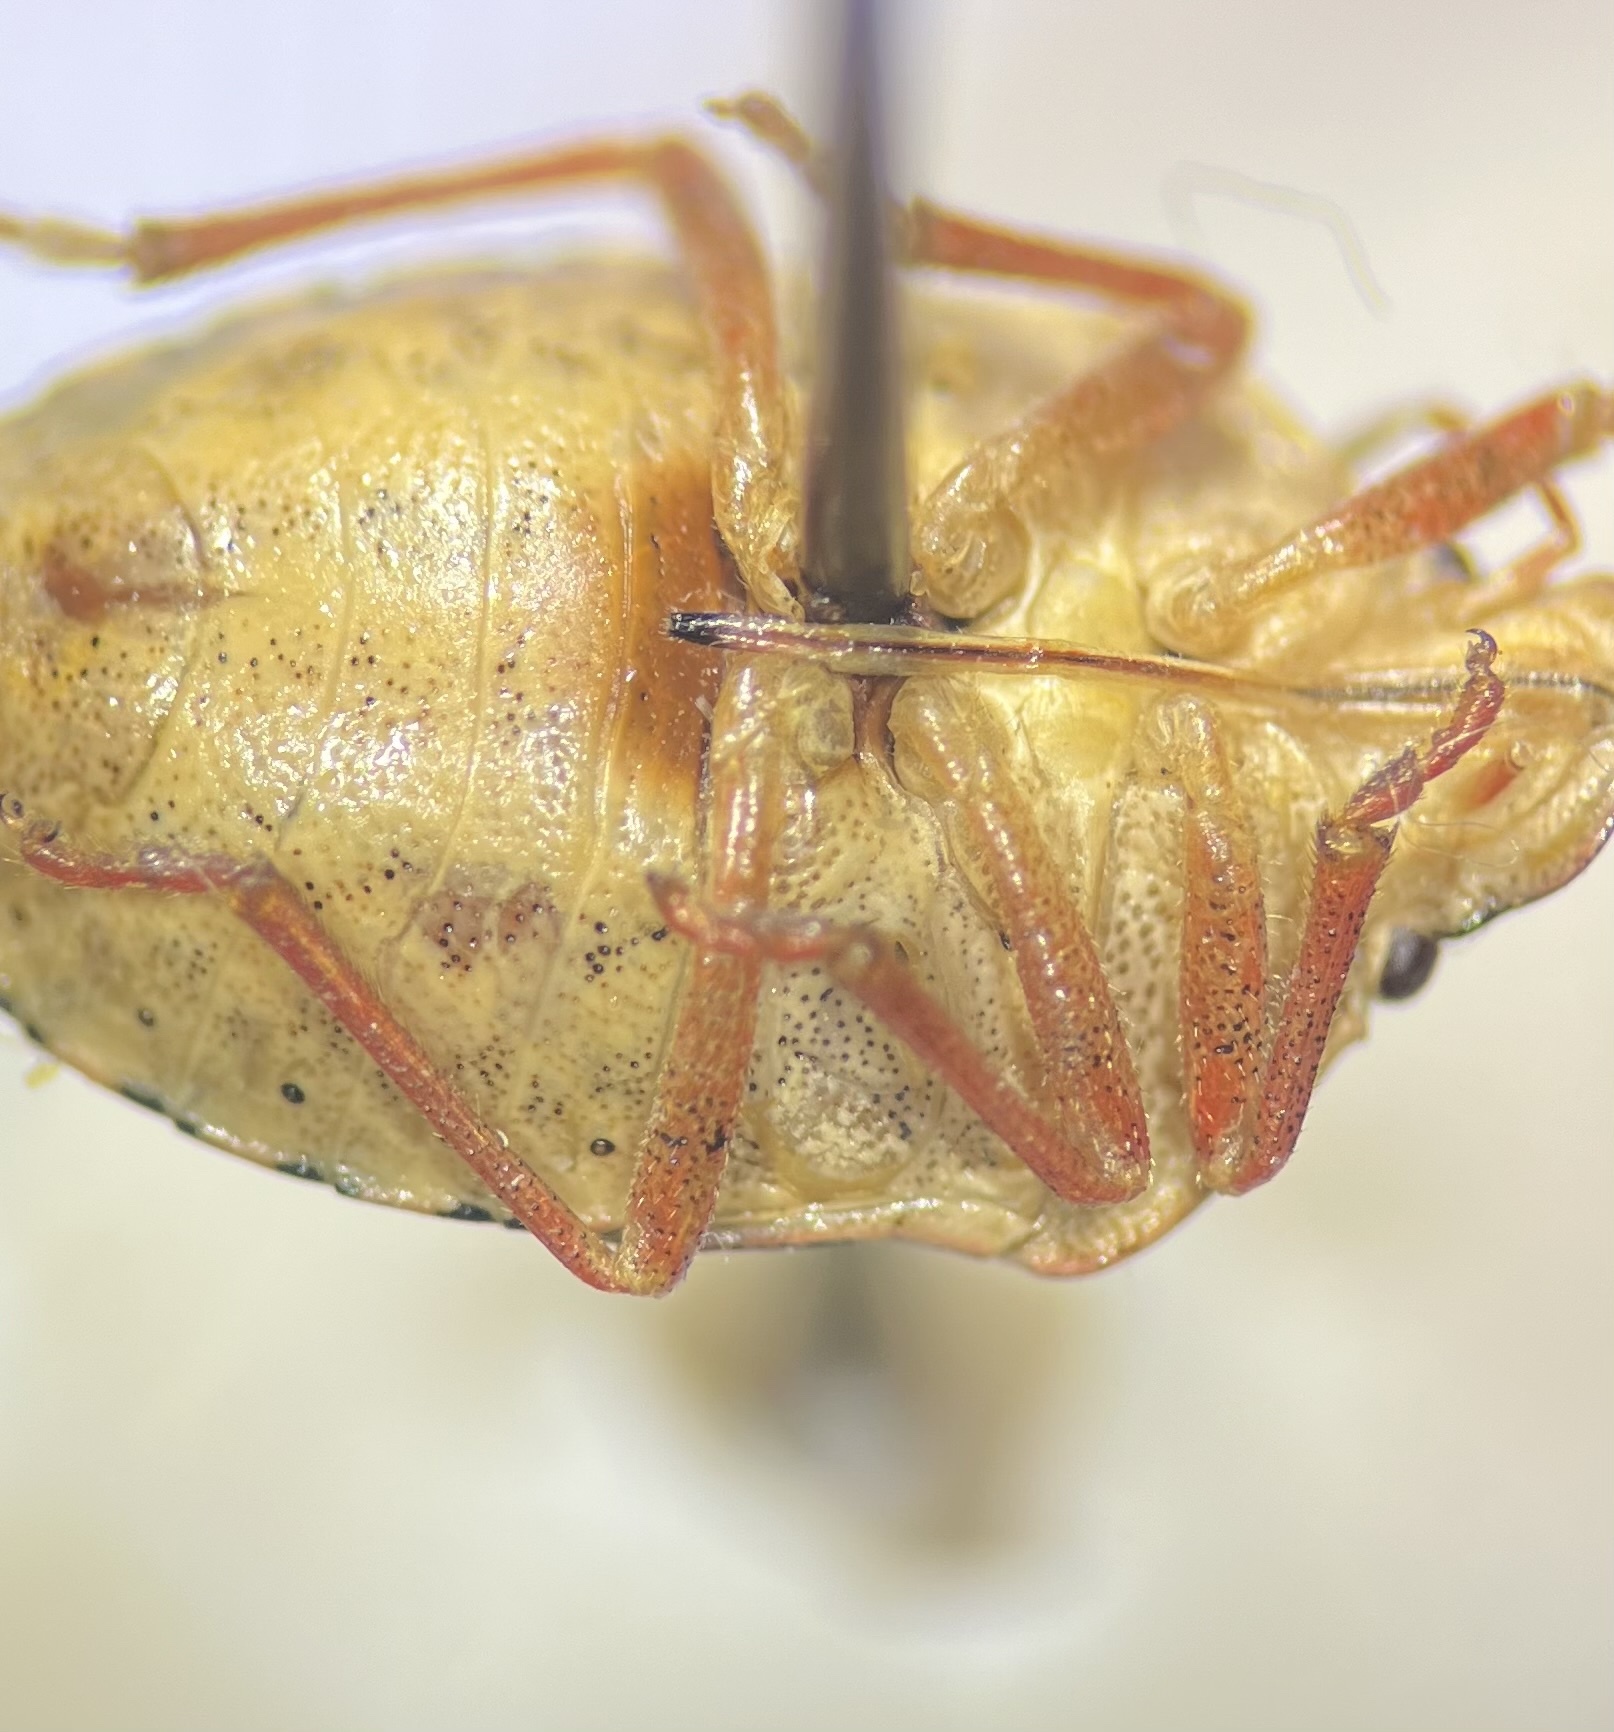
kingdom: Animalia
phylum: Arthropoda
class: Insecta
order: Hemiptera
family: Pentatomidae
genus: Holcostethus
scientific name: Holcostethus abbreviatus
